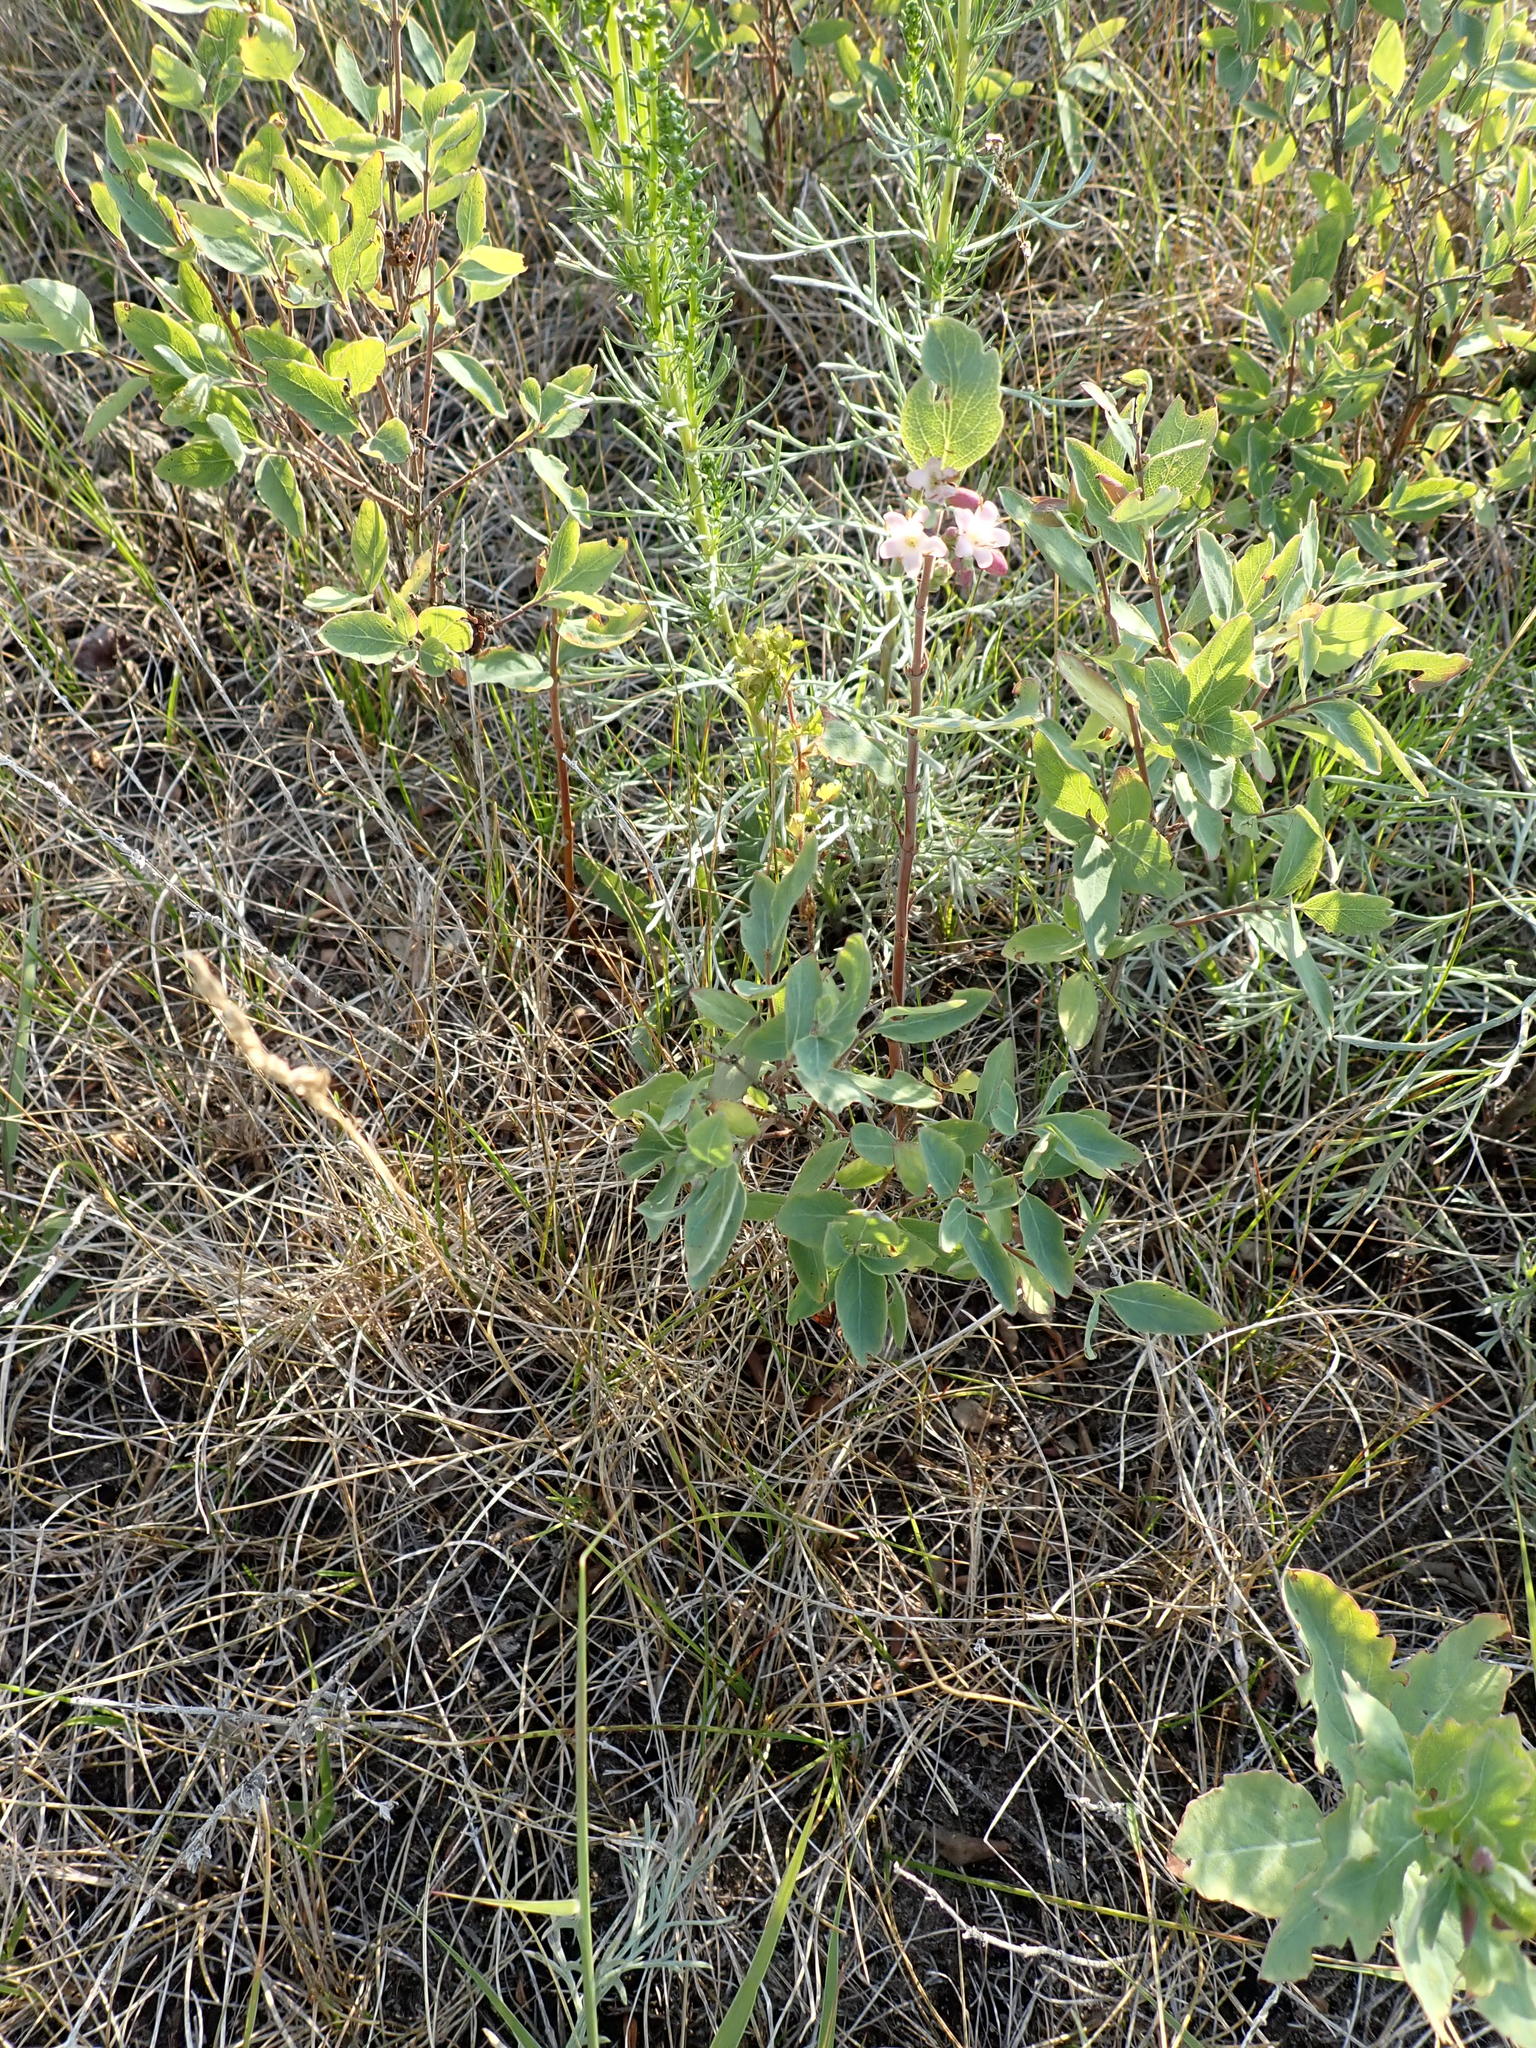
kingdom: Plantae
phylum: Tracheophyta
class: Magnoliopsida
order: Dipsacales
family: Caprifoliaceae
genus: Symphoricarpos
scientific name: Symphoricarpos occidentalis
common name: Wolfberry
